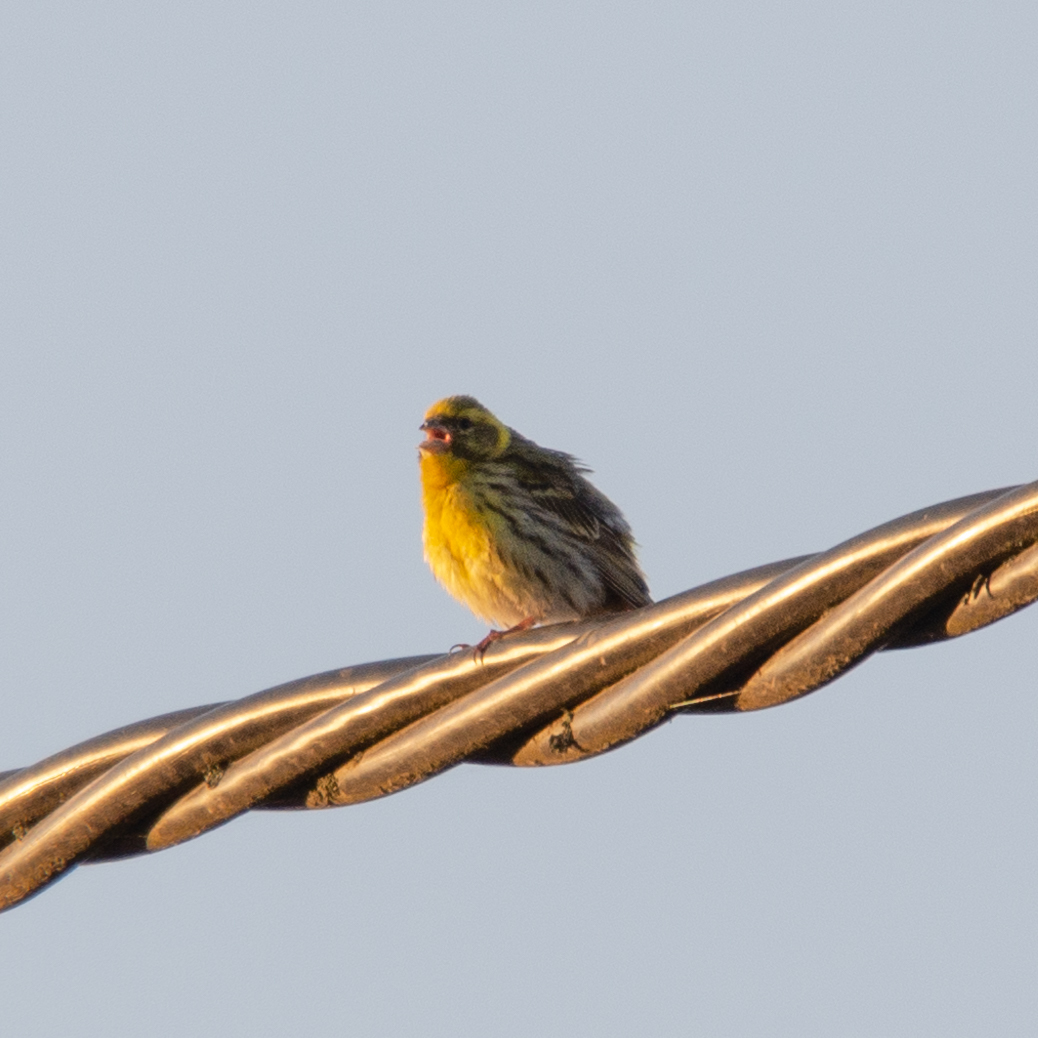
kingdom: Animalia
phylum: Chordata
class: Aves
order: Passeriformes
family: Fringillidae
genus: Serinus
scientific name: Serinus serinus
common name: European serin
